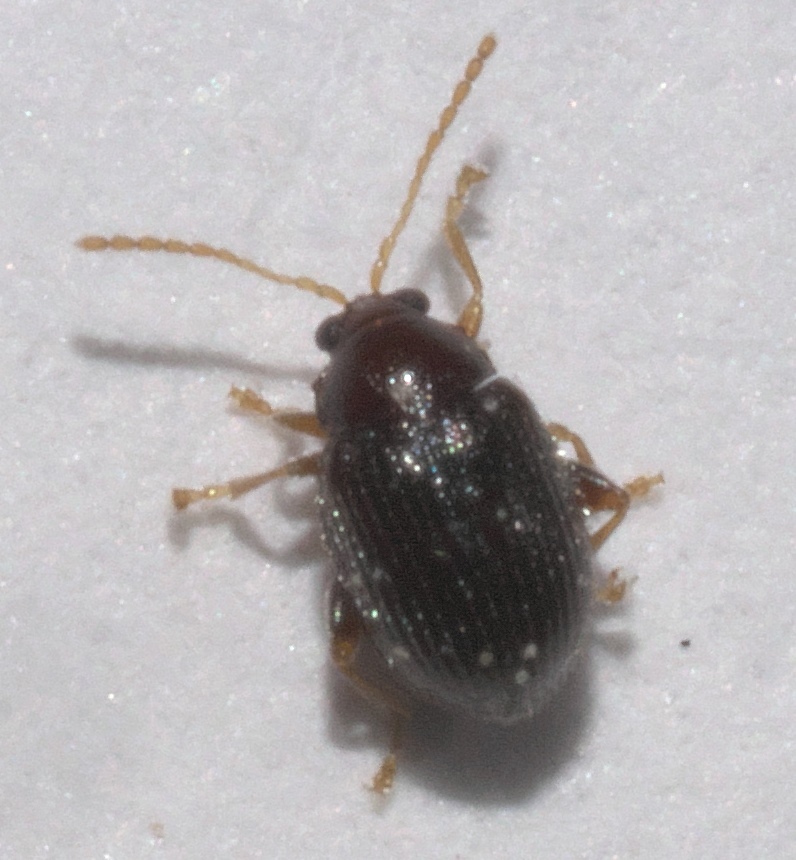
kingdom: Animalia
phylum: Arthropoda
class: Insecta
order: Coleoptera
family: Chrysomelidae
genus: Epitrix
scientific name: Epitrix brevis
